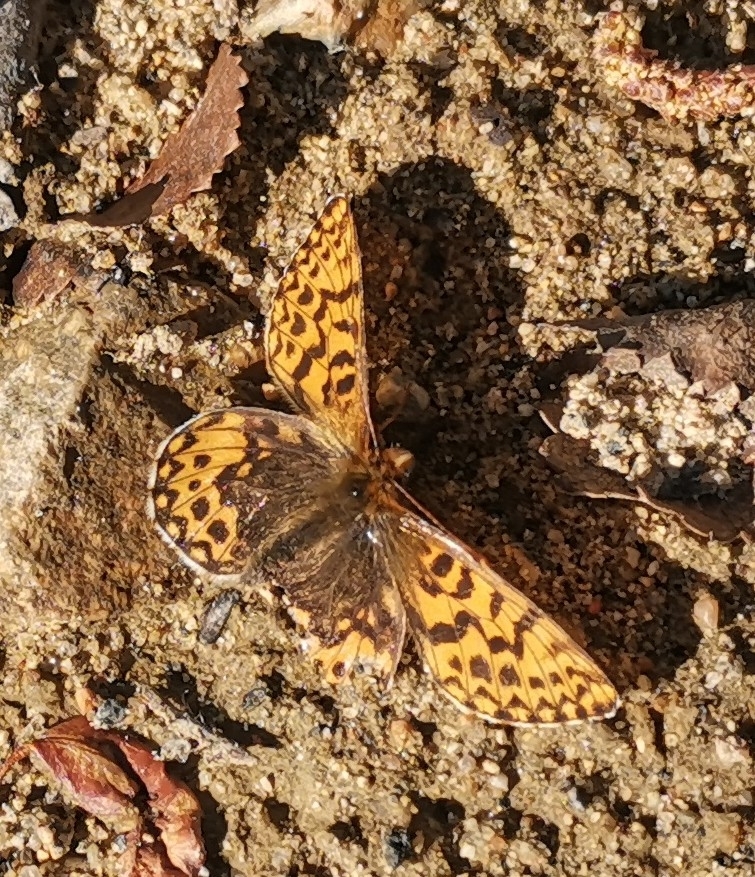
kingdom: Animalia
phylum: Arthropoda
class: Insecta
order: Lepidoptera
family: Nymphalidae
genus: Boloria
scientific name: Boloria freija
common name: Freija fritillary
